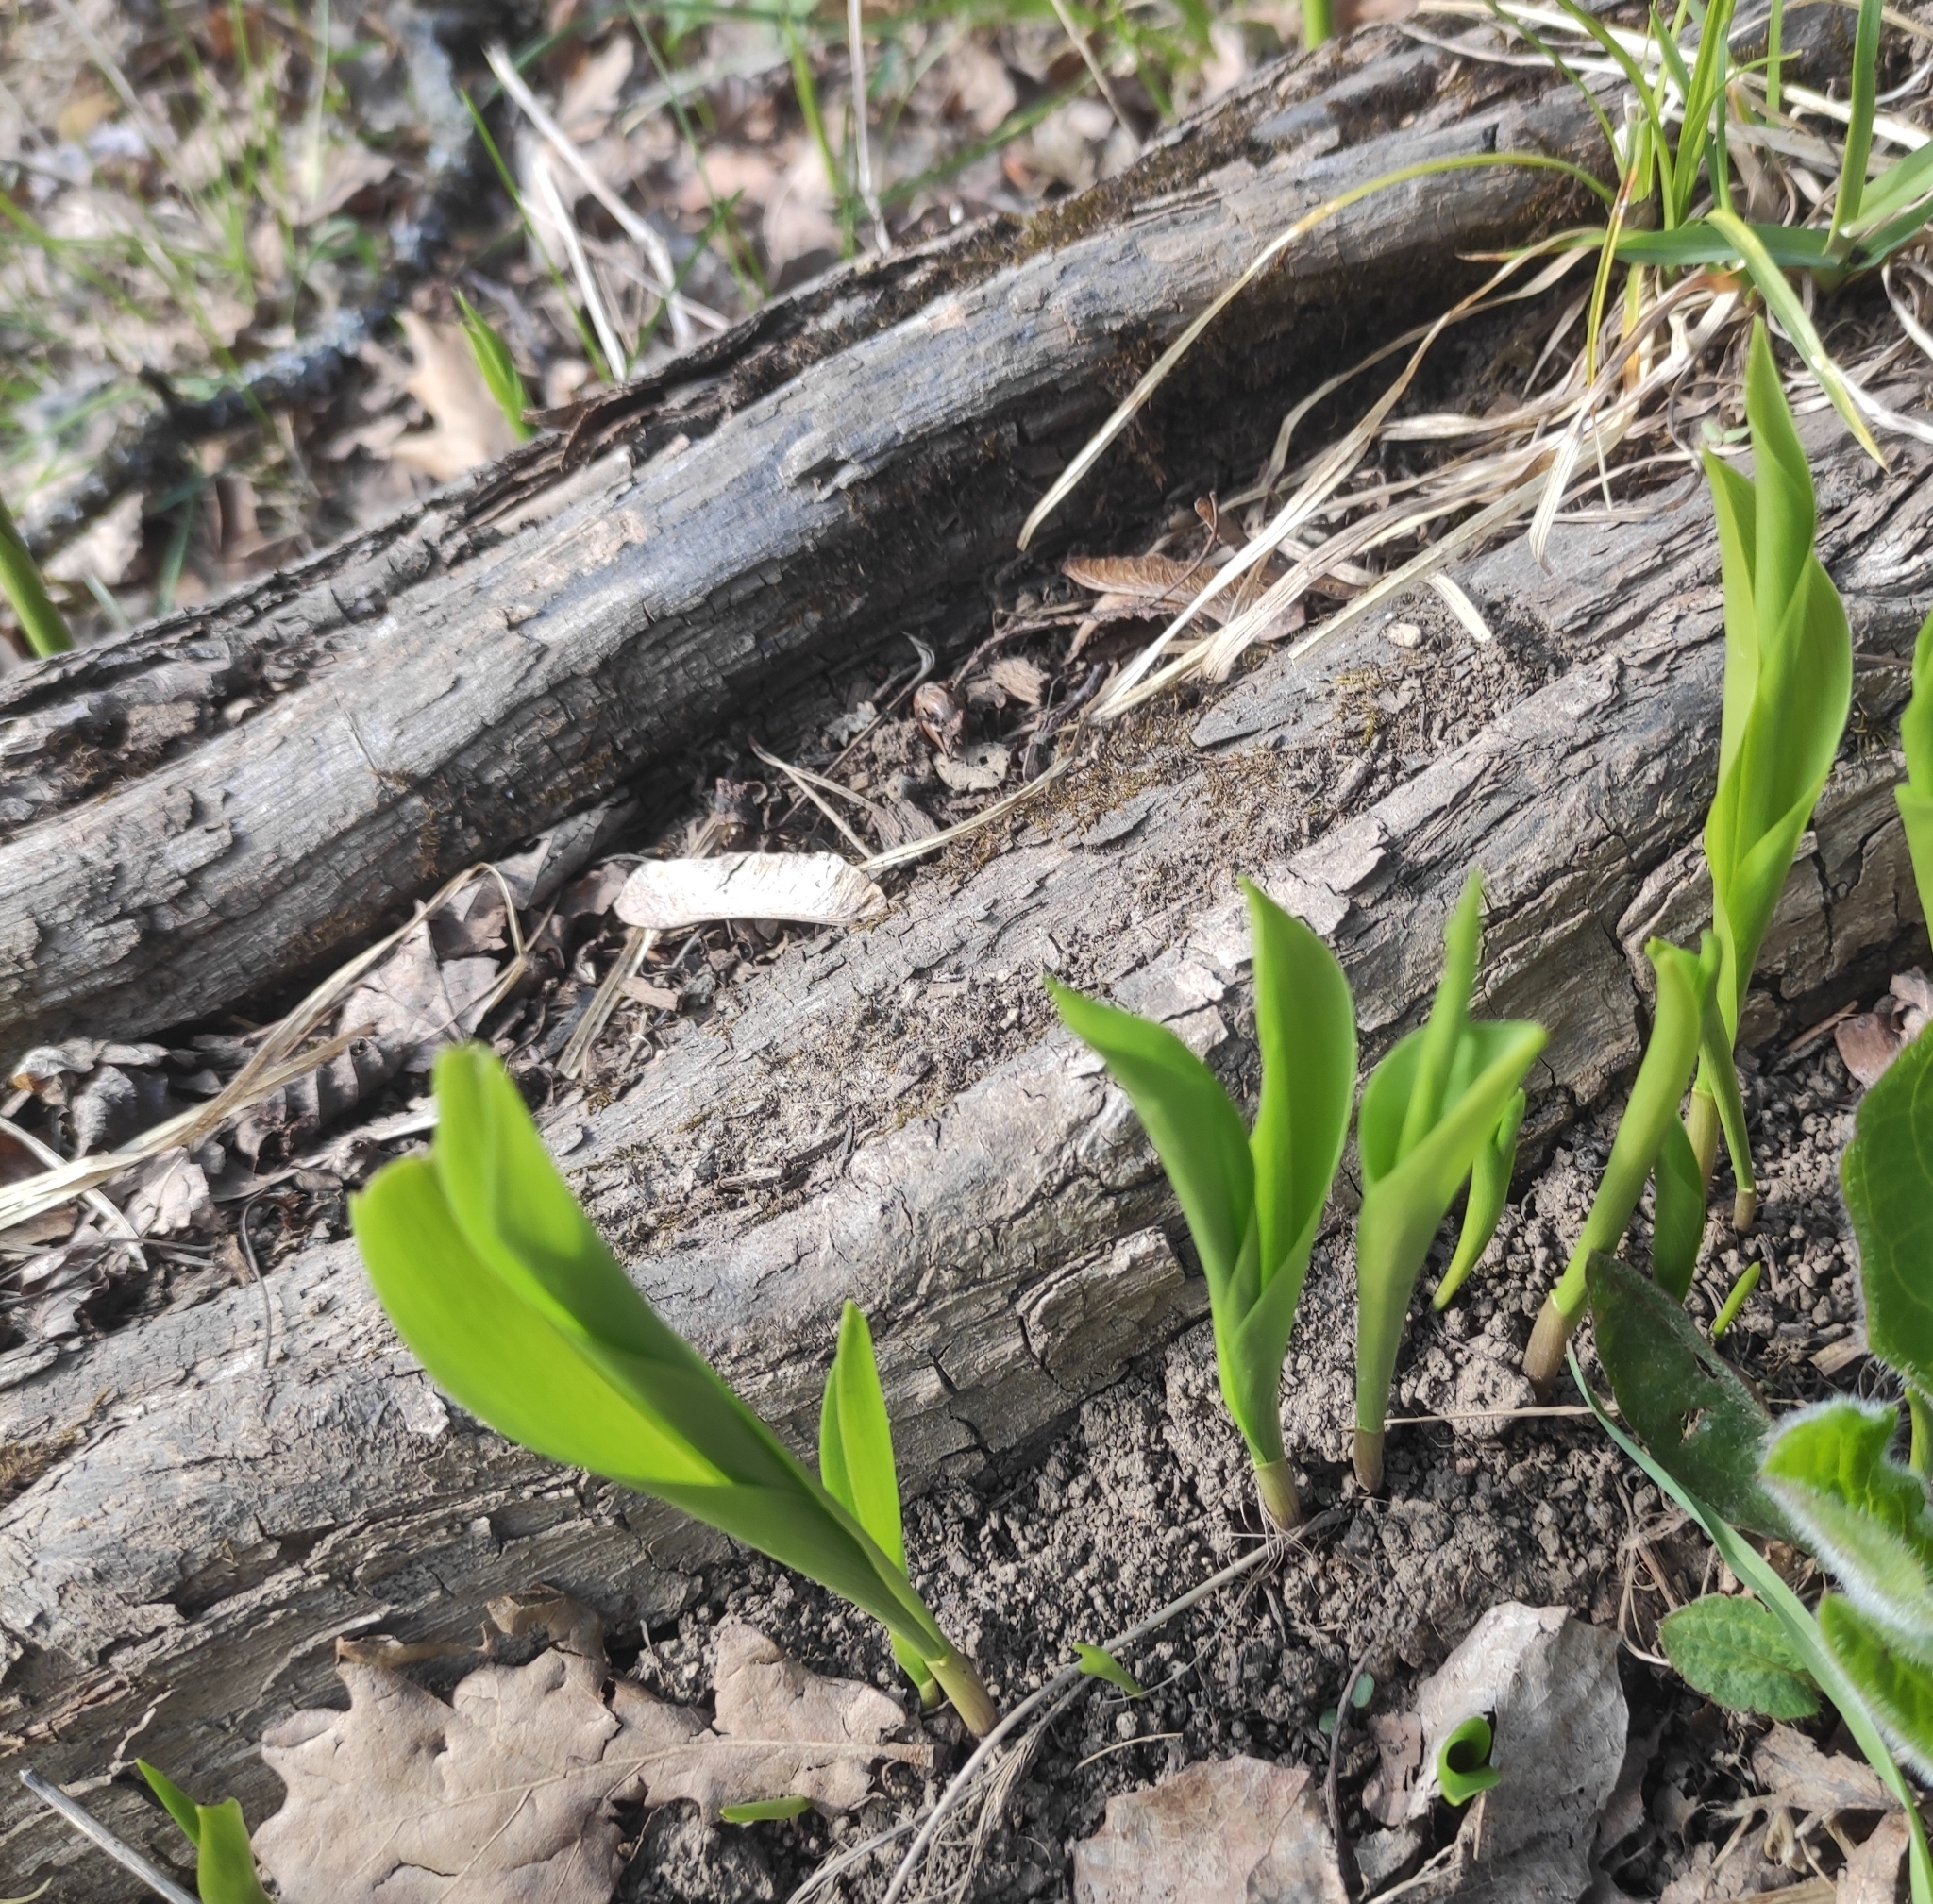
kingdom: Plantae
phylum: Tracheophyta
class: Liliopsida
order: Asparagales
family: Asparagaceae
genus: Convallaria
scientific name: Convallaria majalis
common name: Lily-of-the-valley
